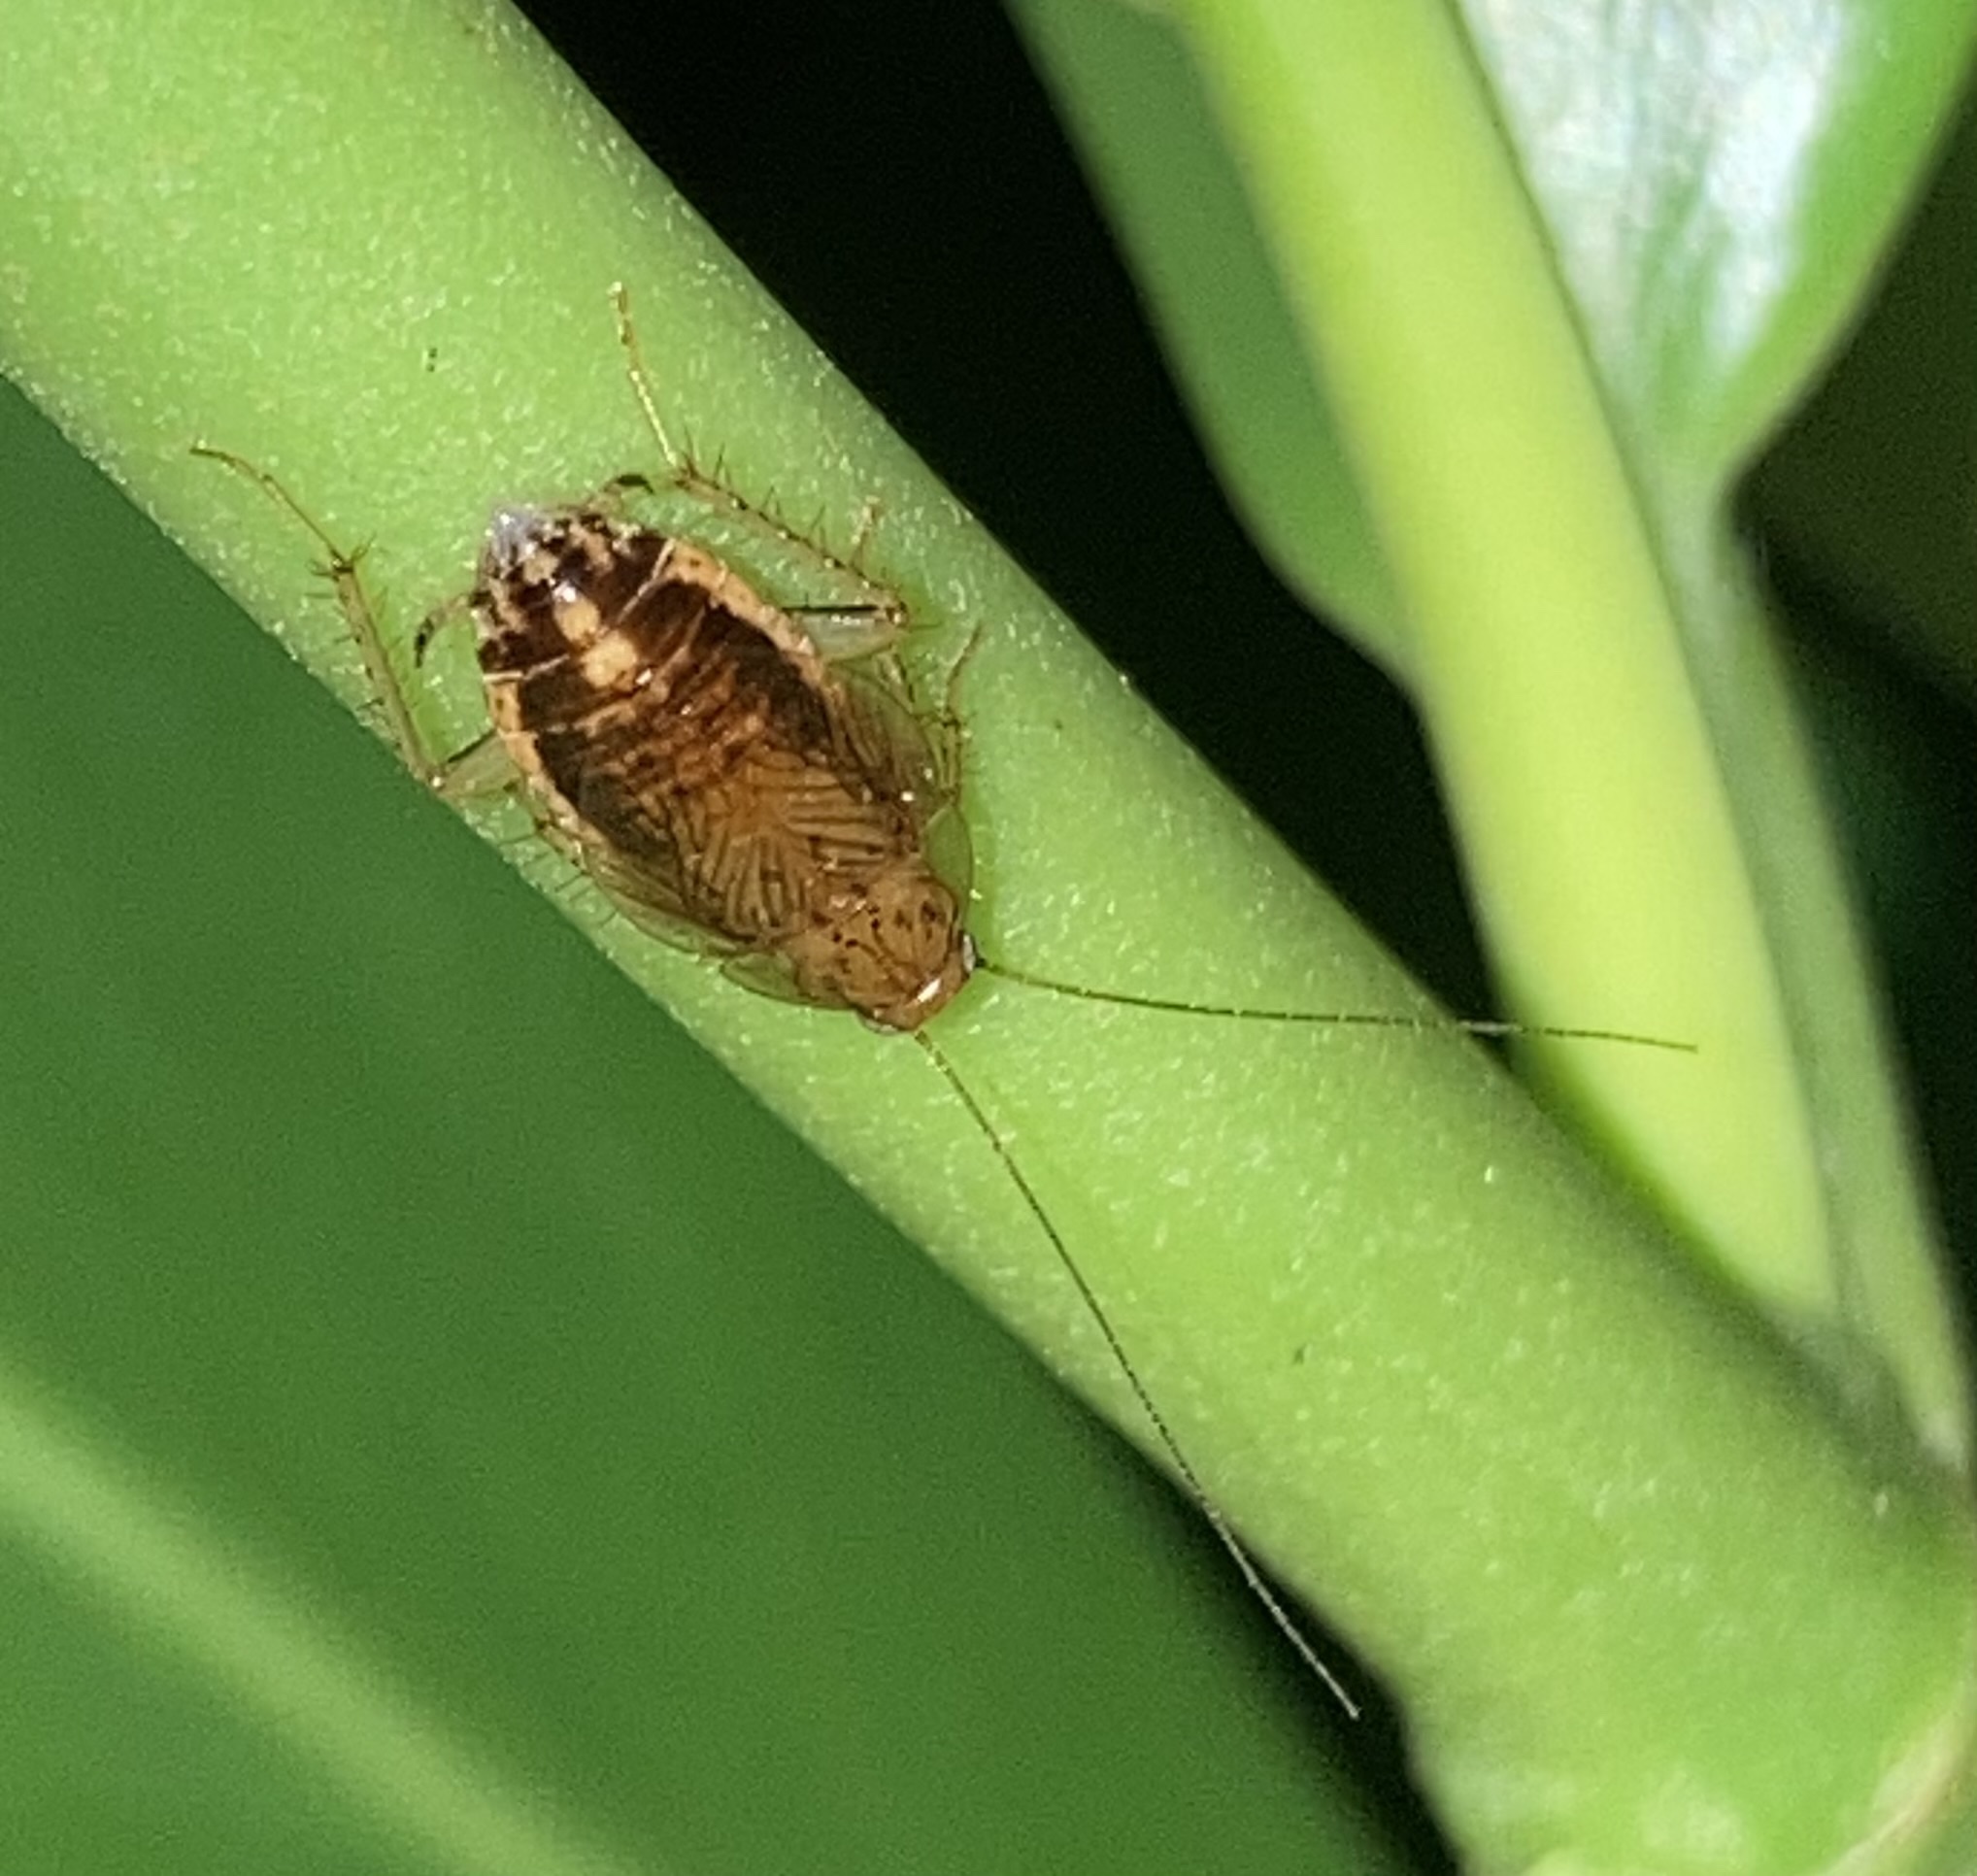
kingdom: Animalia
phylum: Arthropoda
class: Insecta
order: Blattodea
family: Ectobiidae
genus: Cariblatta
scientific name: Cariblatta minima
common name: Least yellow cockroach
